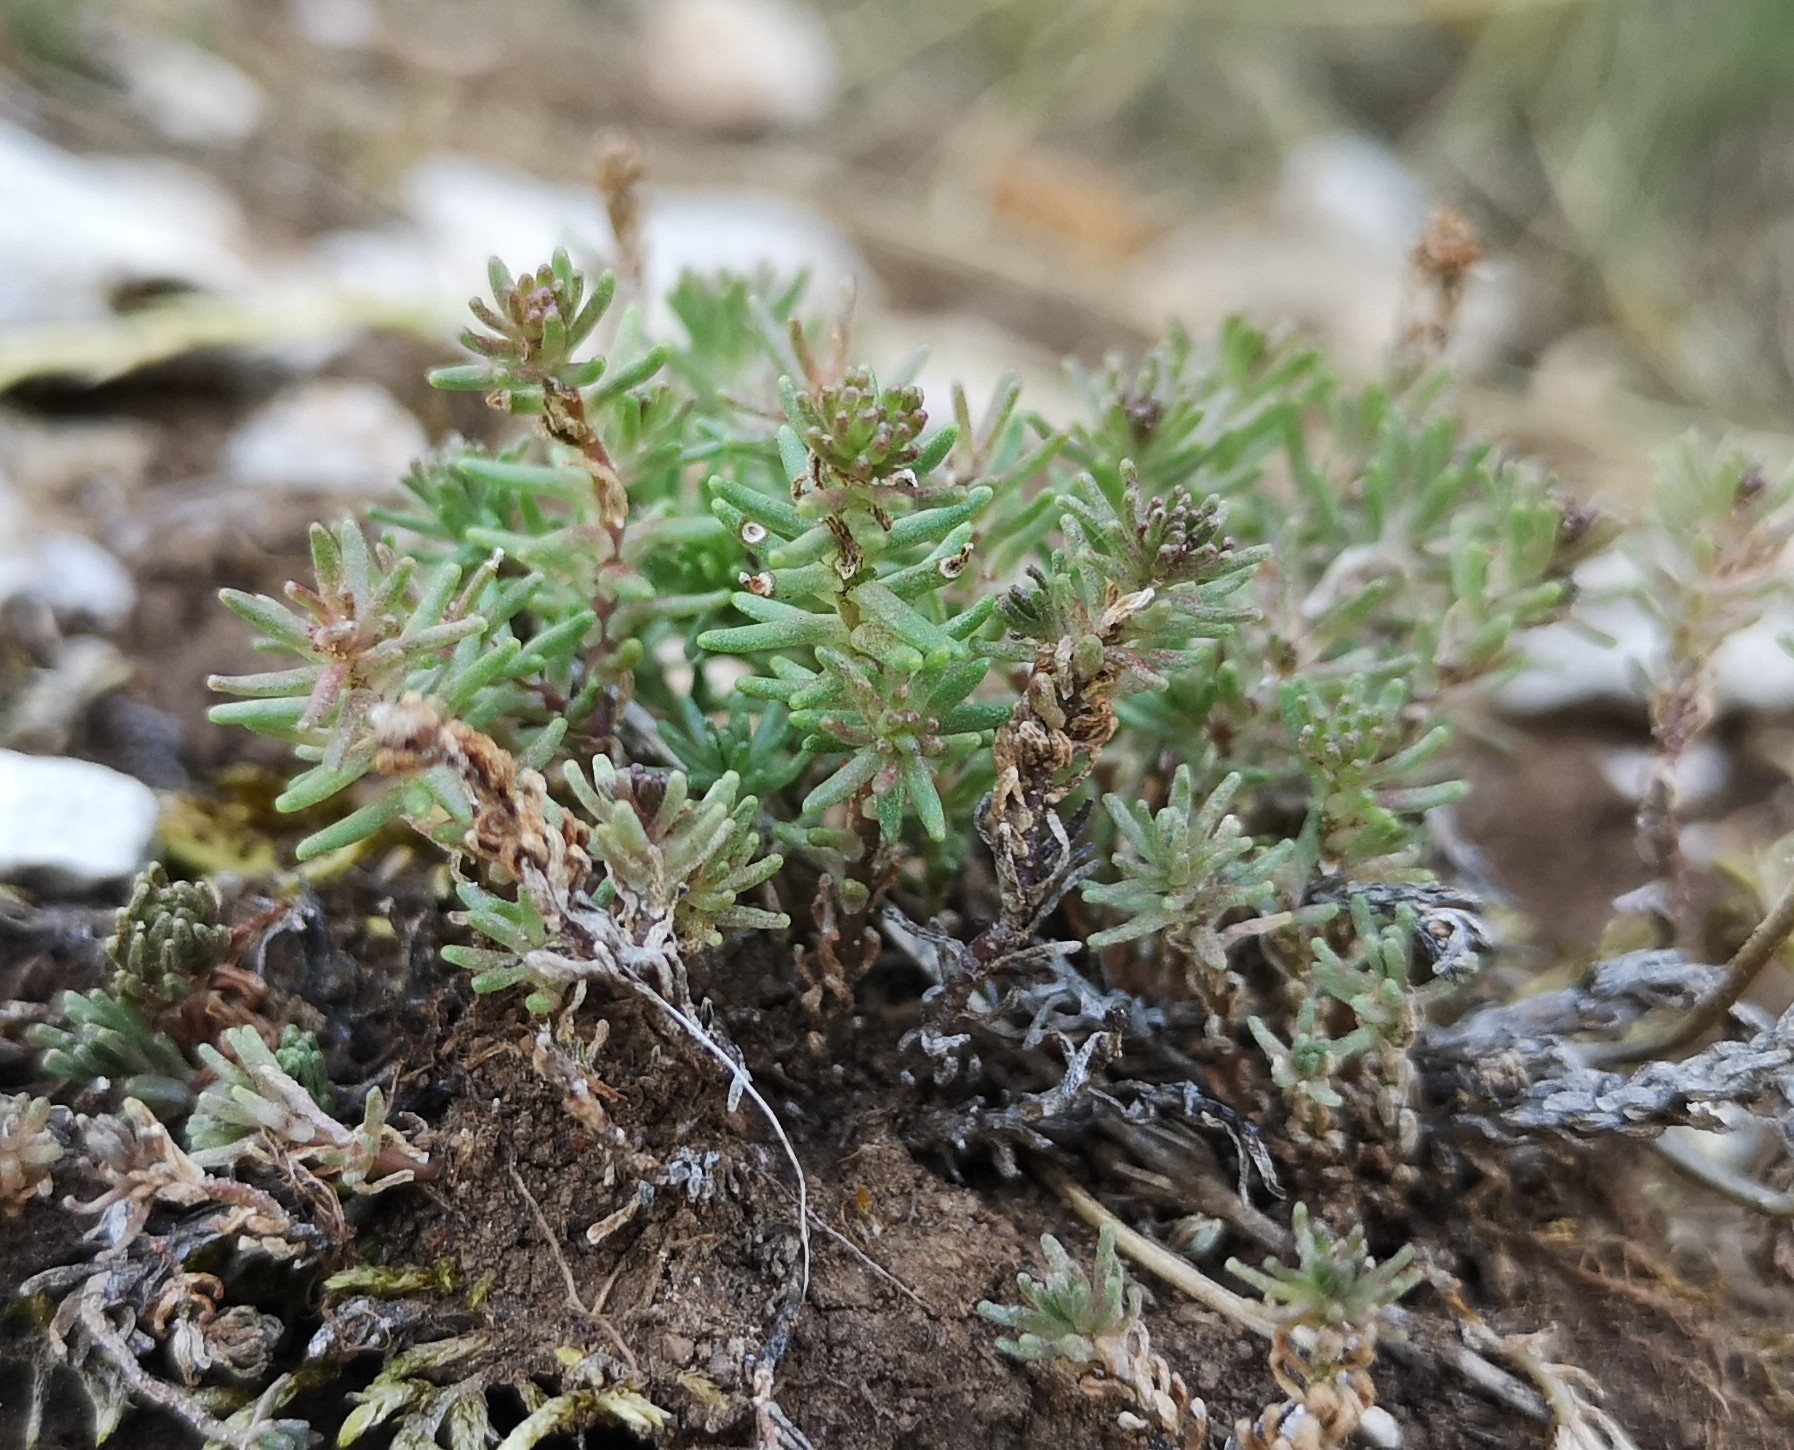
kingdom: Plantae
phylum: Tracheophyta
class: Magnoliopsida
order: Saxifragales
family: Crassulaceae
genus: Sedum
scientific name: Sedum sexangulare
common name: Tasteless stonecrop
